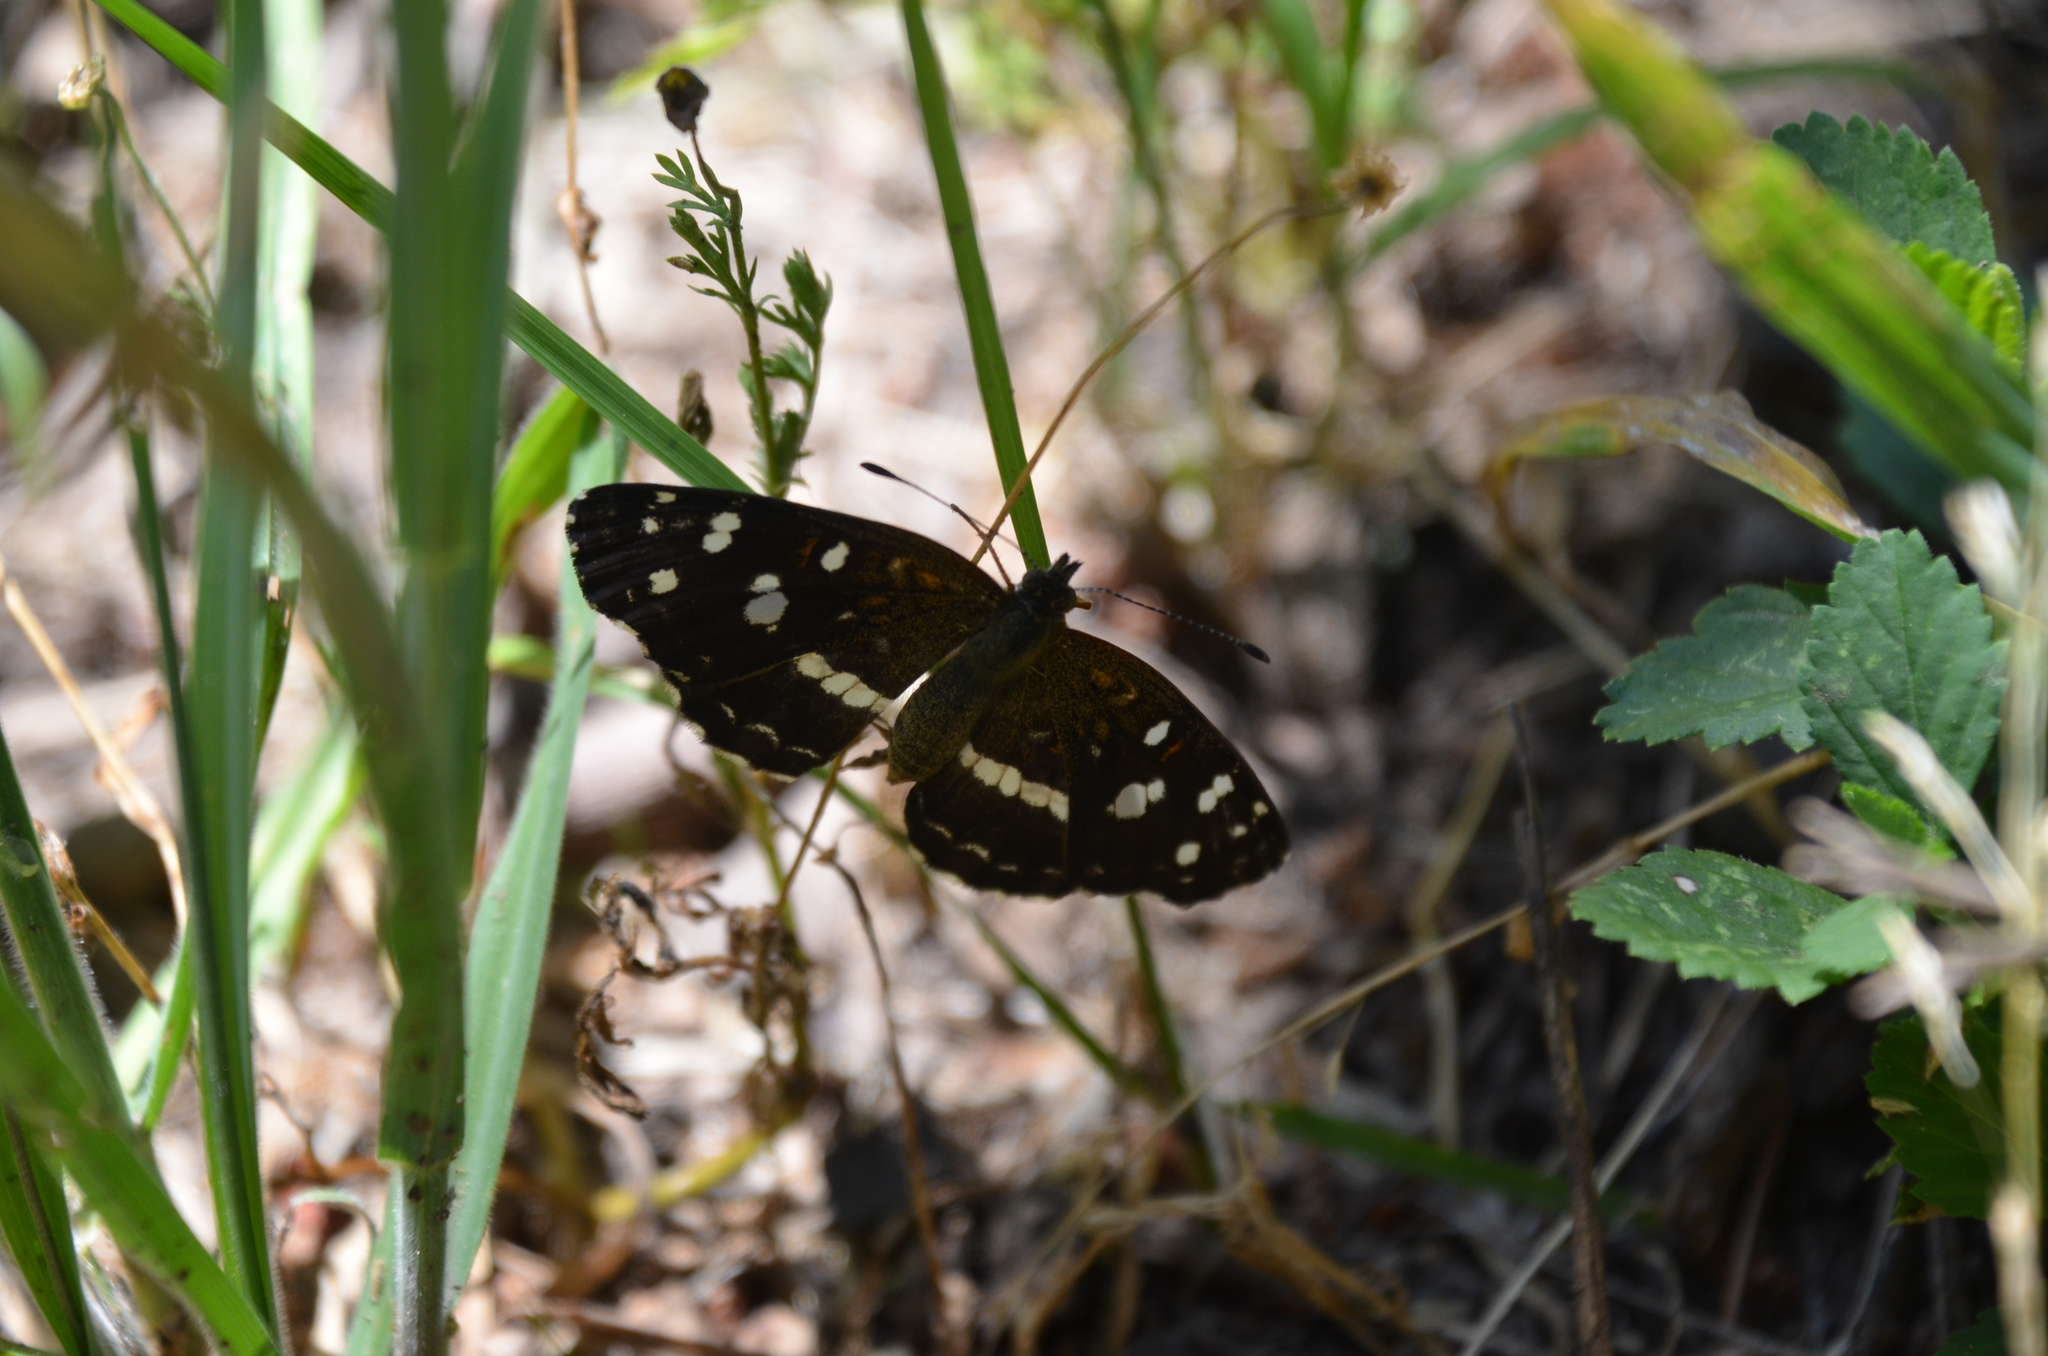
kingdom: Animalia
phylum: Arthropoda
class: Insecta
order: Lepidoptera
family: Nymphalidae
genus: Ortilia
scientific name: Ortilia ithra
